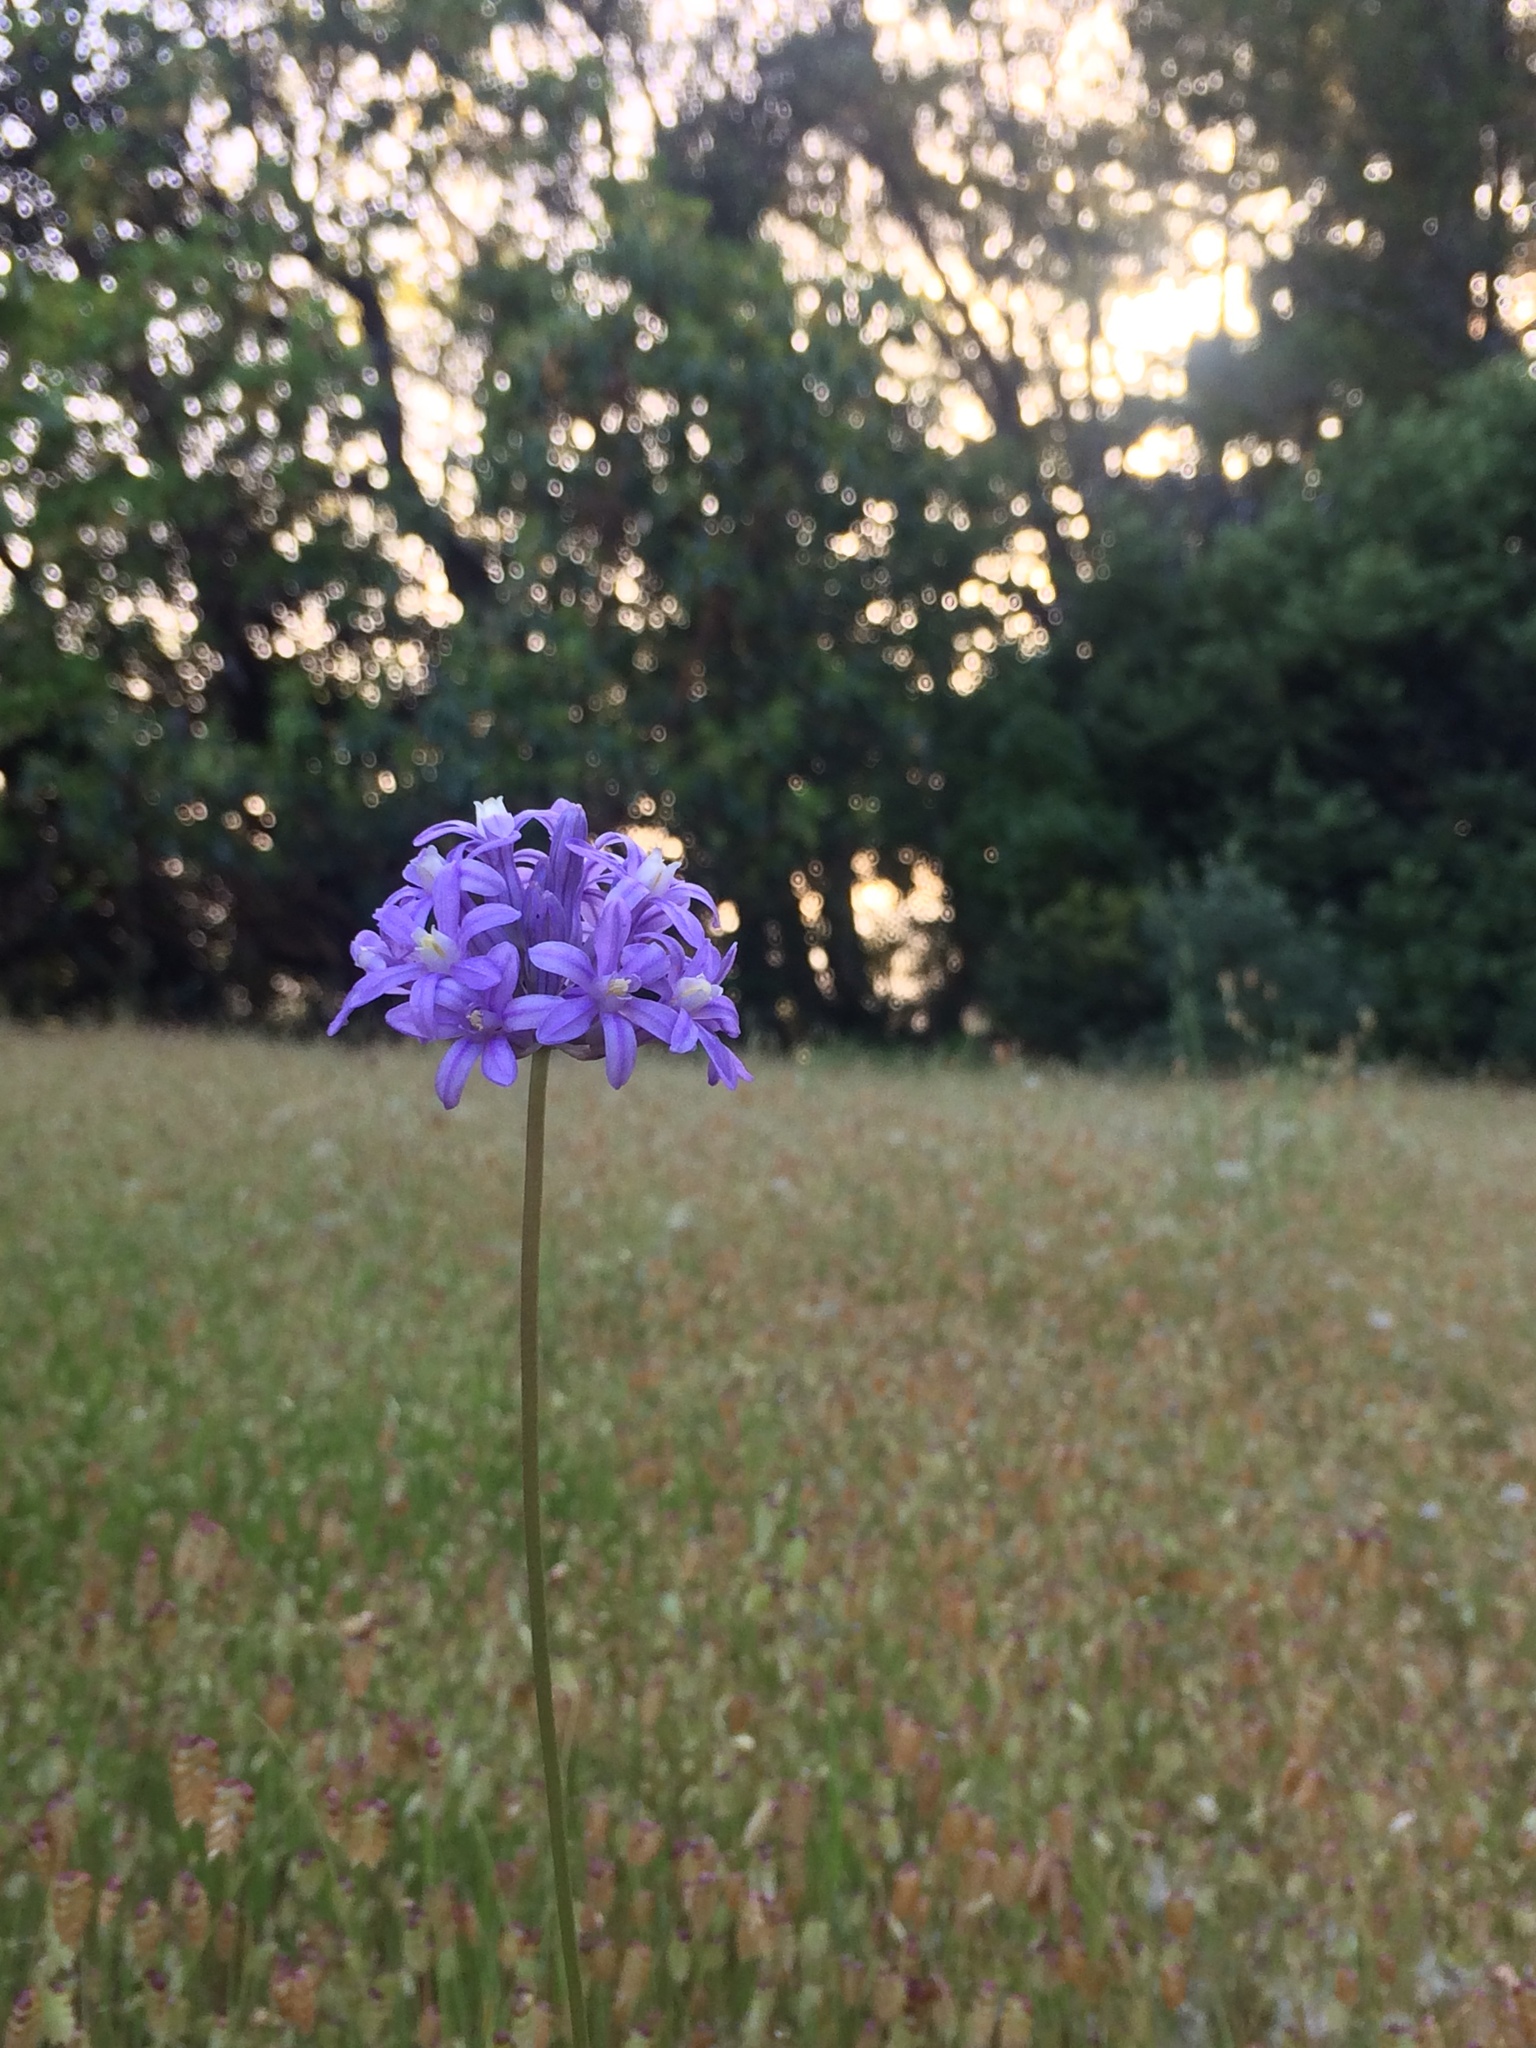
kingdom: Plantae
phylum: Tracheophyta
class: Liliopsida
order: Asparagales
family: Asparagaceae
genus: Dichelostemma
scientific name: Dichelostemma multiflorum
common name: Round-tooth ookow
